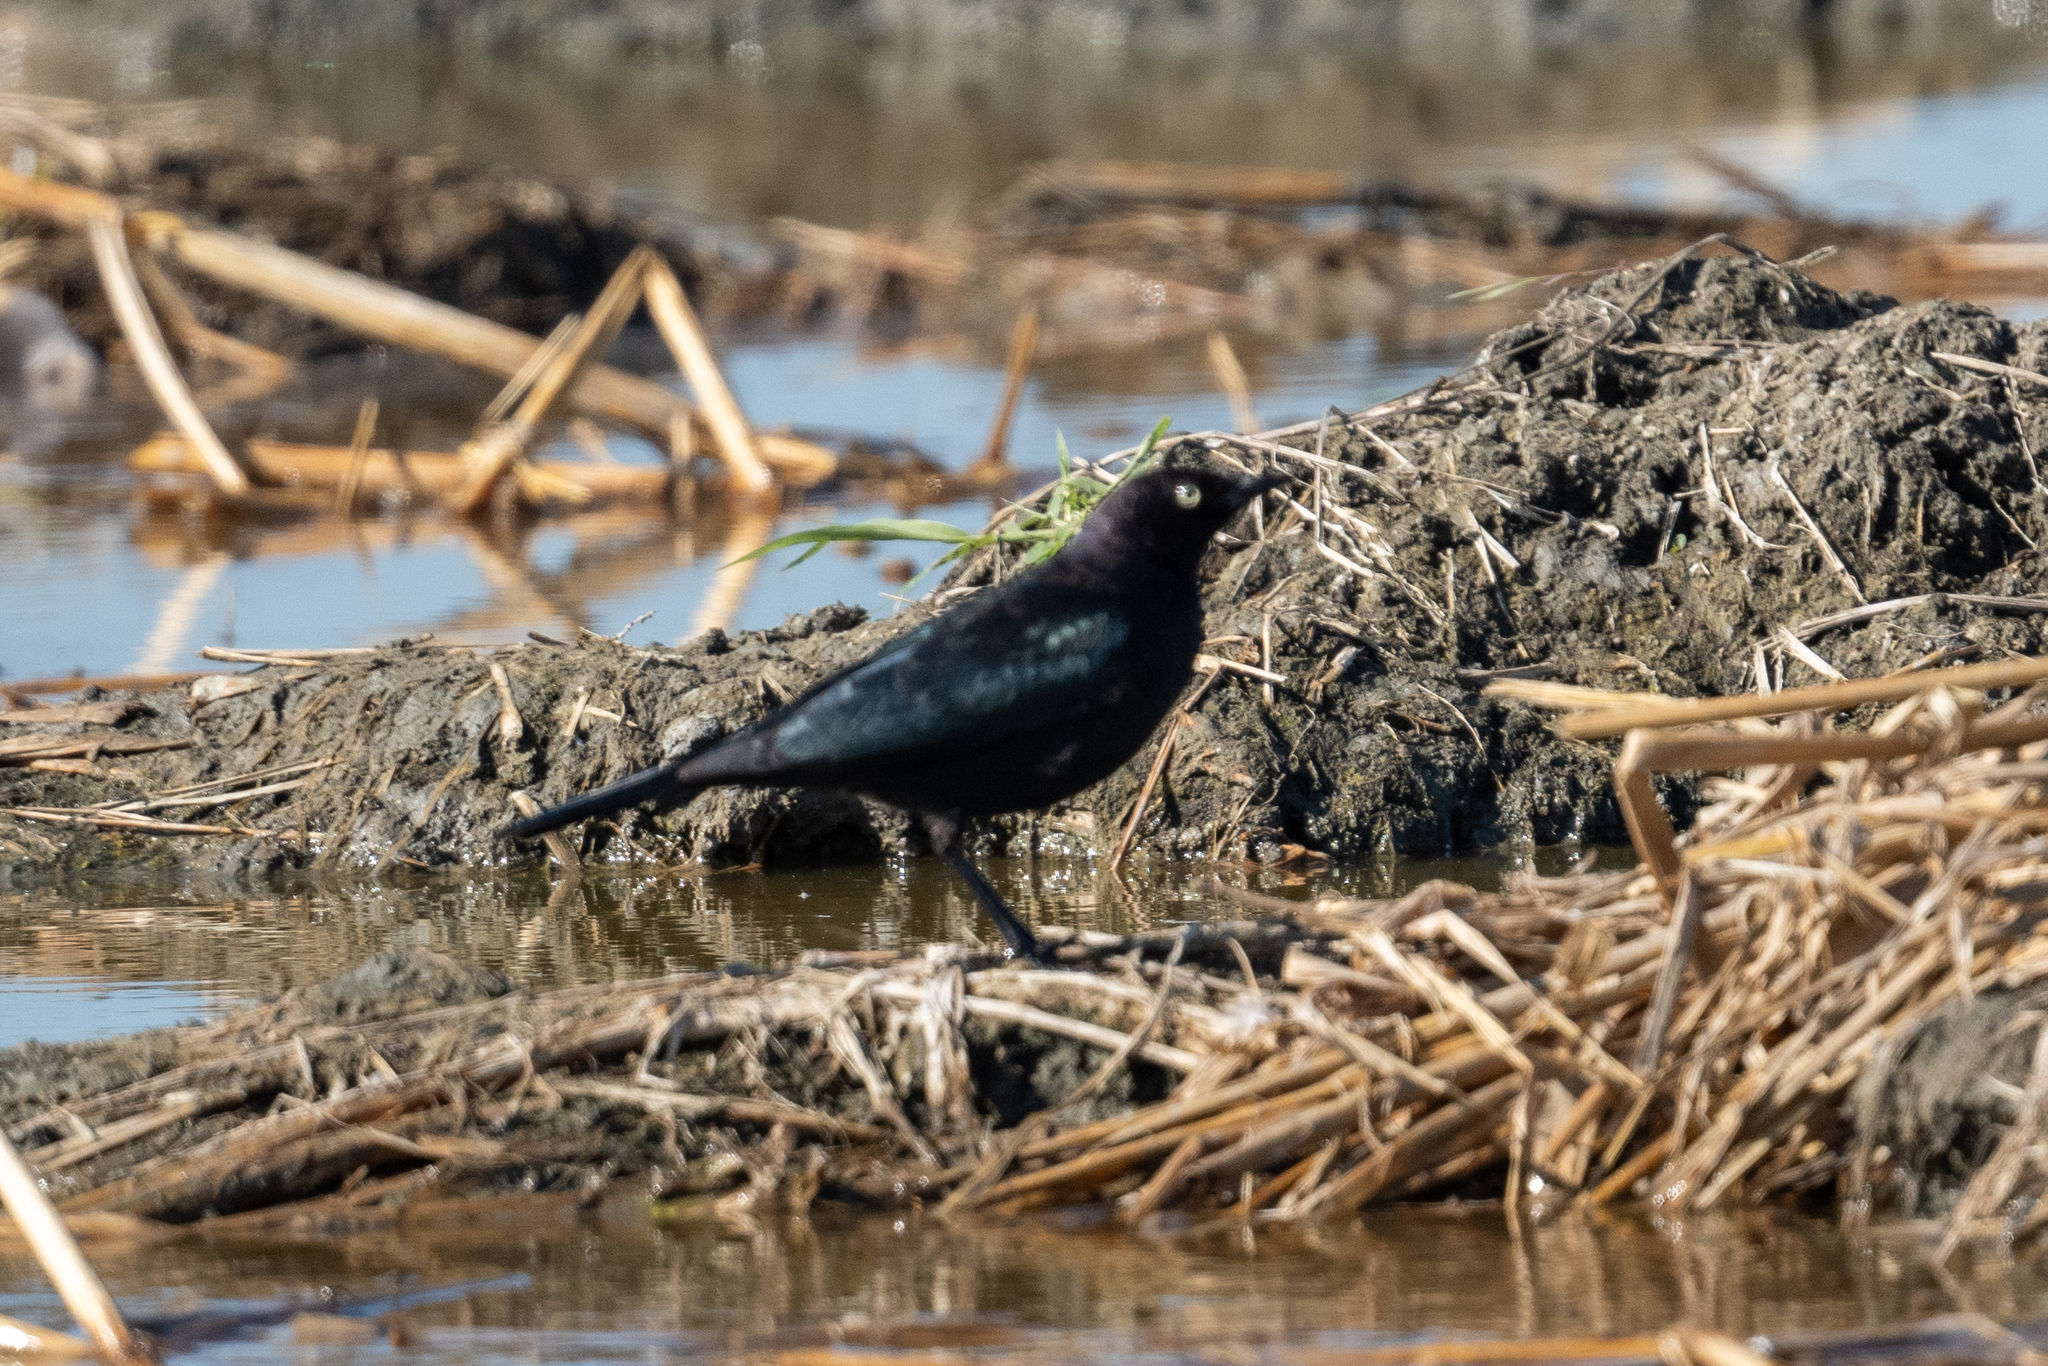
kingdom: Animalia
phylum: Chordata
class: Aves
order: Passeriformes
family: Icteridae
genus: Euphagus
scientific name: Euphagus cyanocephalus
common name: Brewer's blackbird
